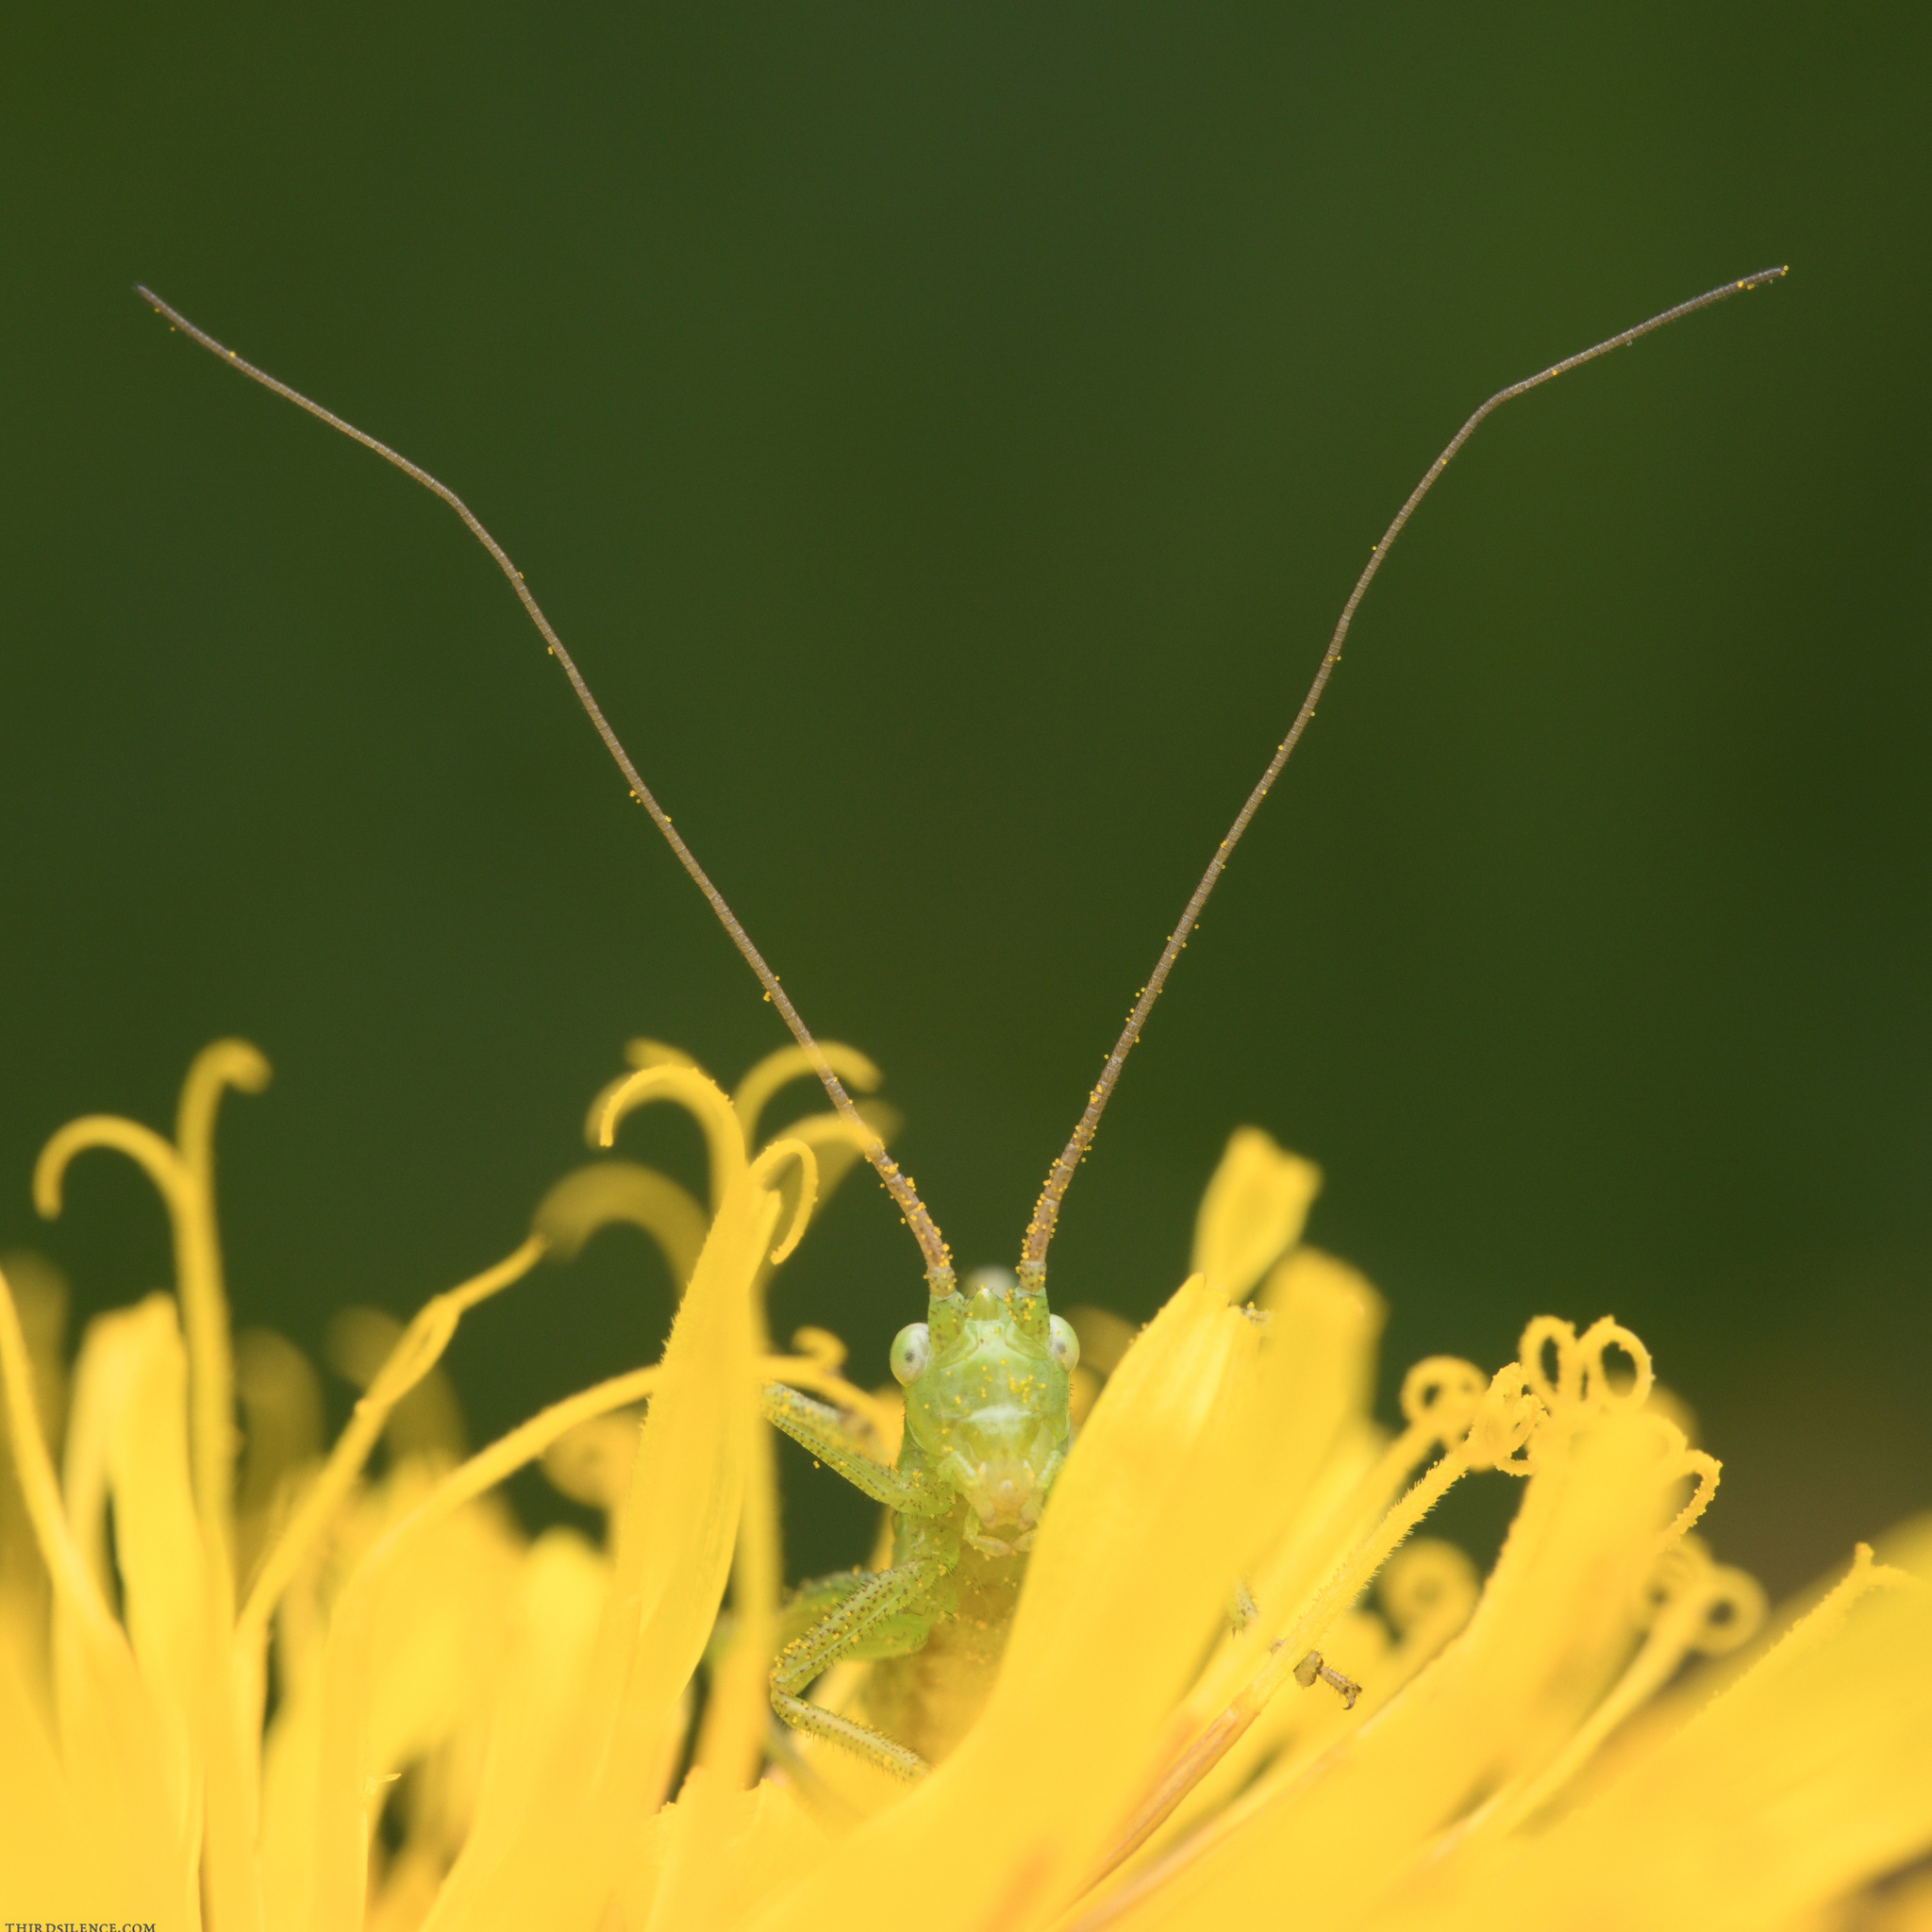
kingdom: Animalia
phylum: Arthropoda
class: Insecta
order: Orthoptera
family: Tettigoniidae
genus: Tettigonia
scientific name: Tettigonia viridissima
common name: Great green bush-cricket
